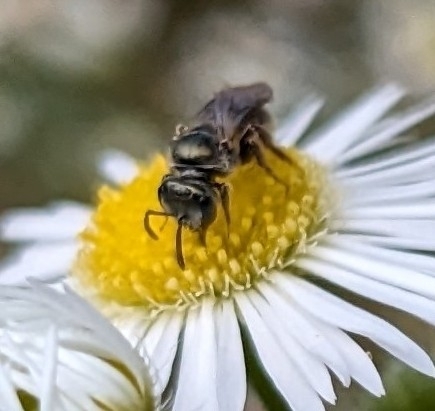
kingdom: Animalia
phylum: Arthropoda
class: Insecta
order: Hymenoptera
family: Halictidae
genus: Dialictus
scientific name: Dialictus
